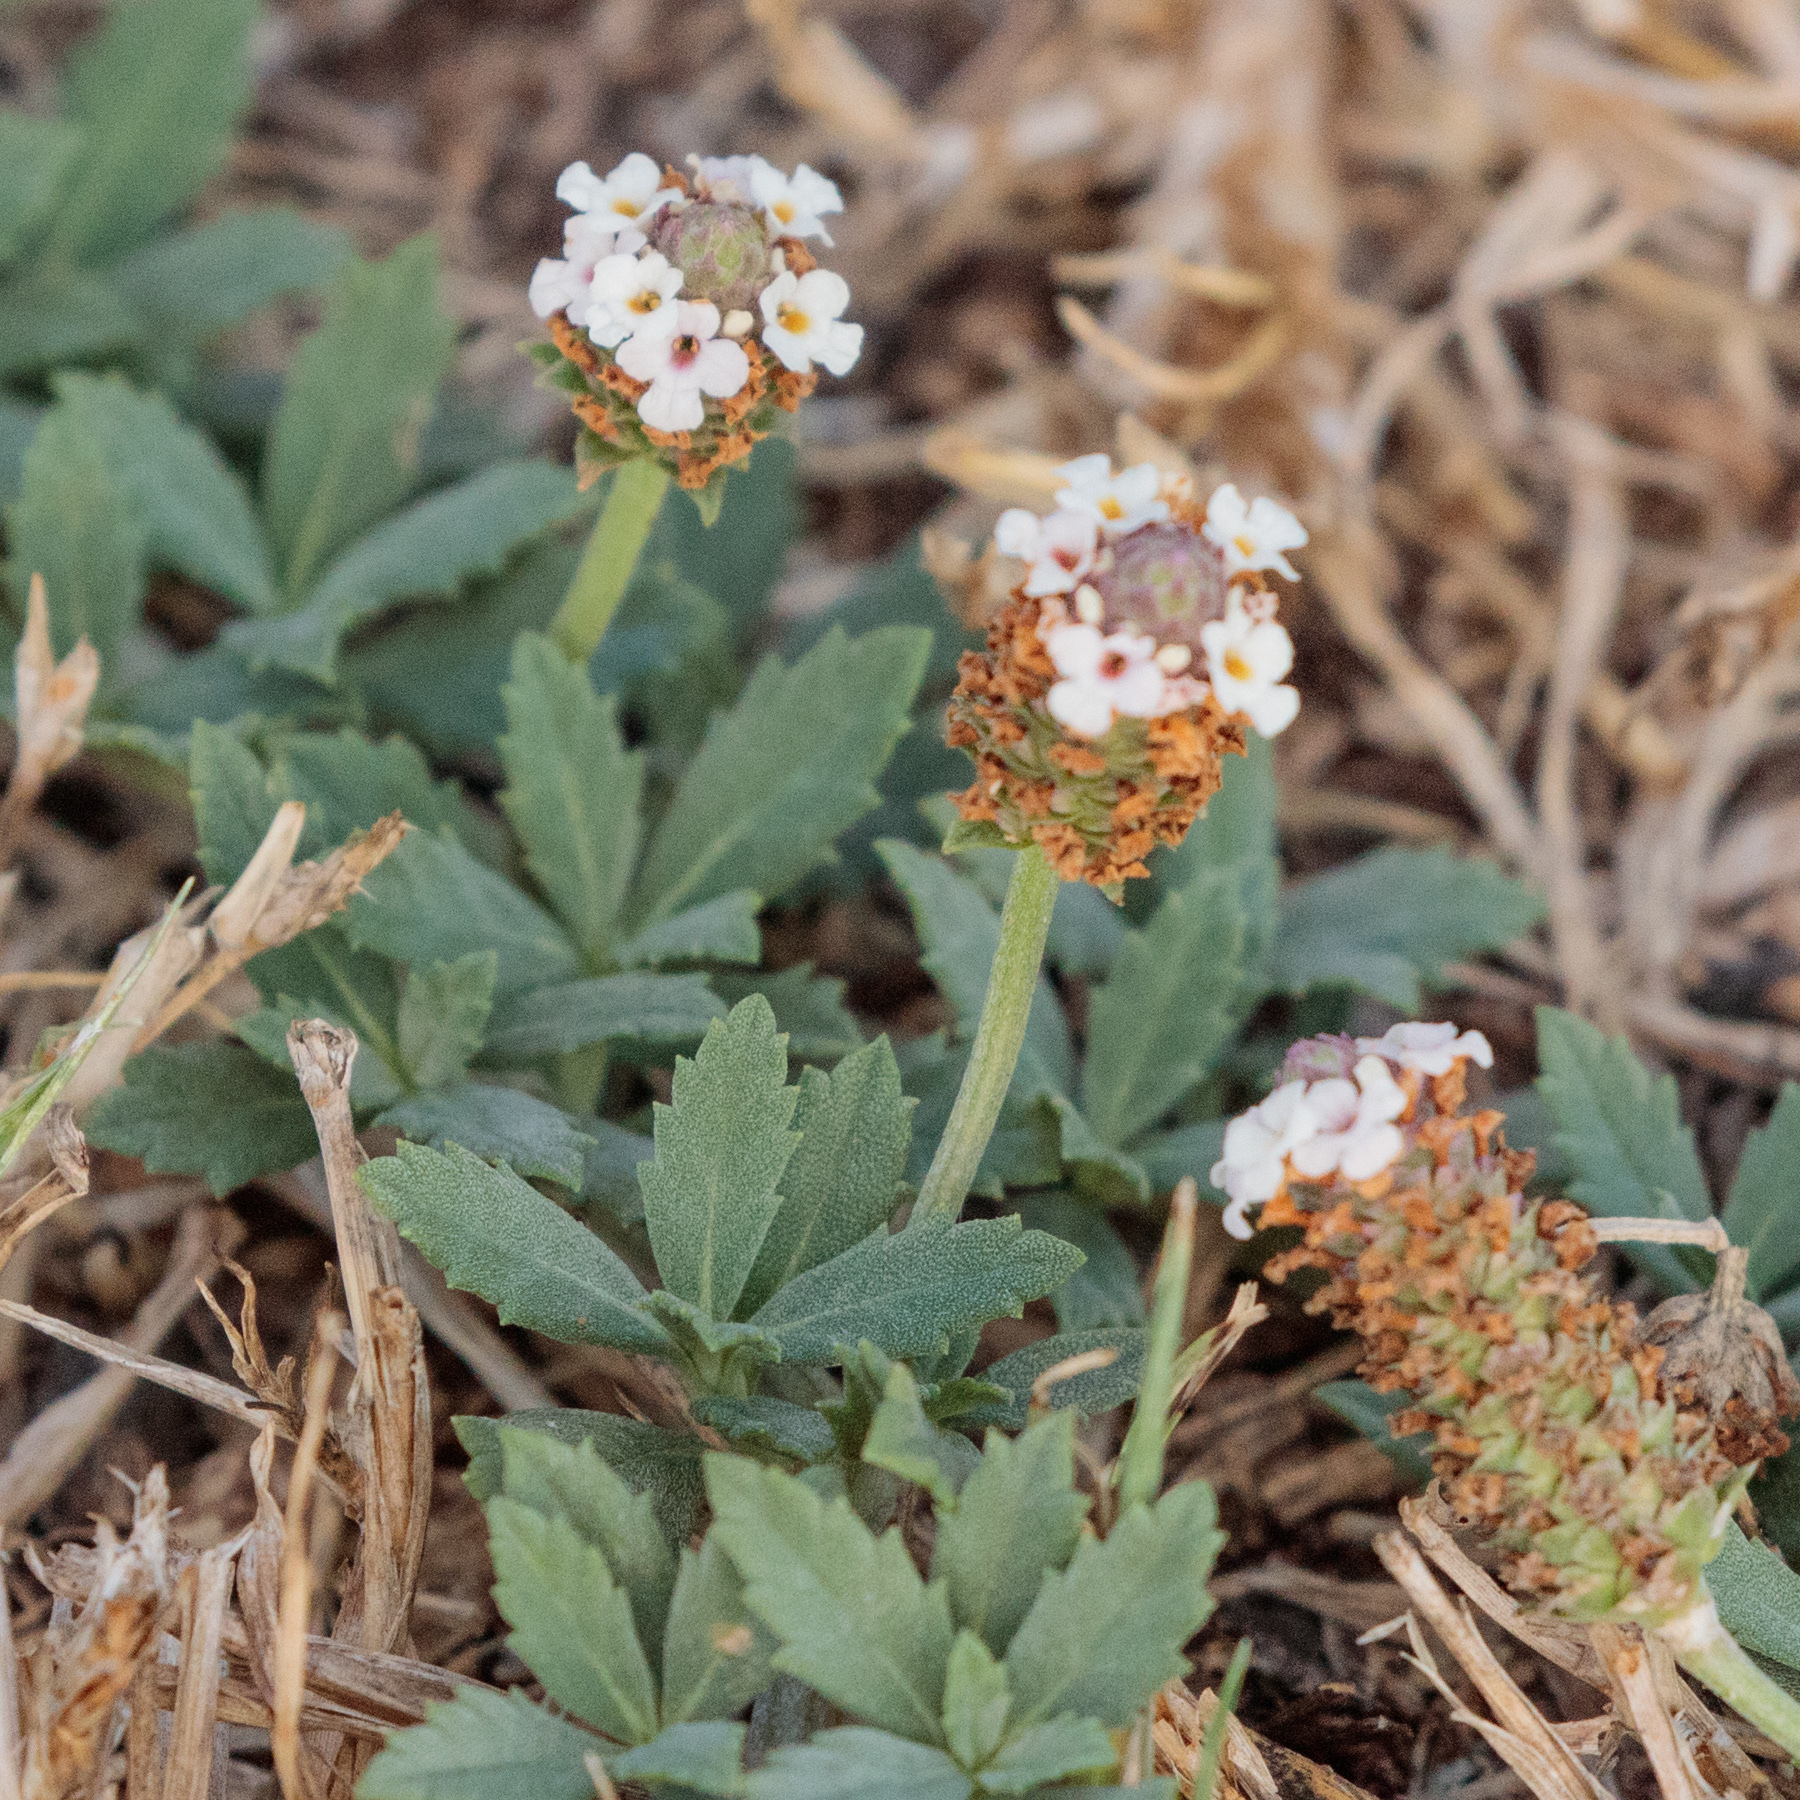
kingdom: Plantae
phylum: Tracheophyta
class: Magnoliopsida
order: Lamiales
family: Verbenaceae
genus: Phyla
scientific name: Phyla nodiflora
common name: Frogfruit
